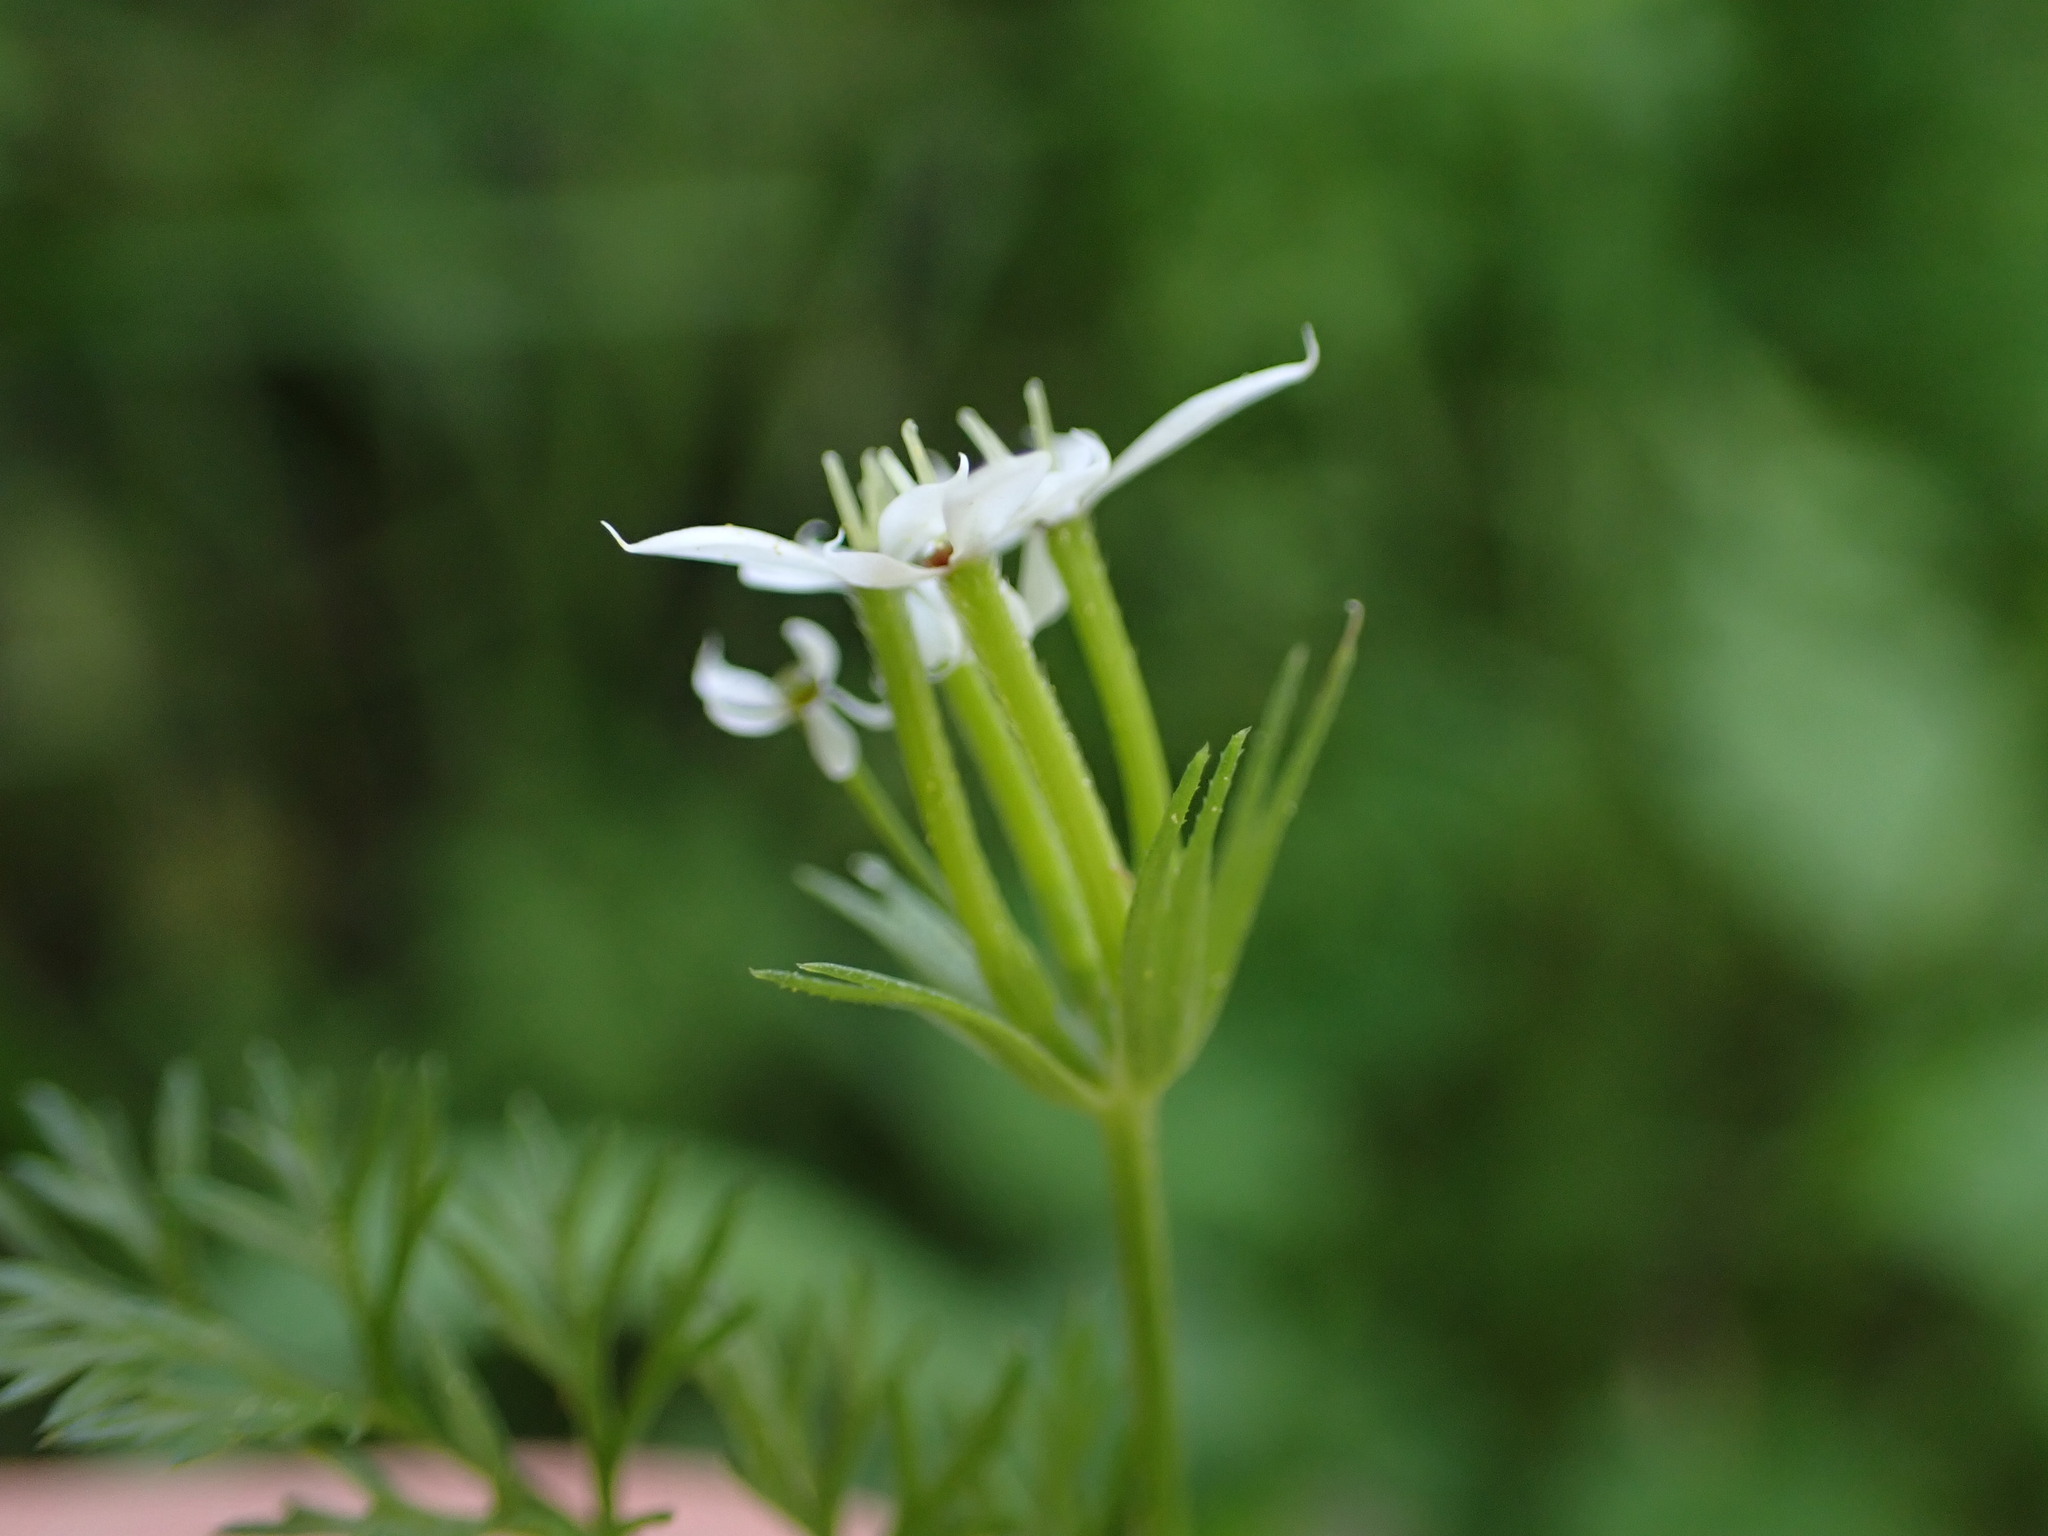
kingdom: Plantae
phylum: Tracheophyta
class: Magnoliopsida
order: Apiales
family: Apiaceae
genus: Scandix
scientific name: Scandix pecten-veneris
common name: Shepherd's-needle
